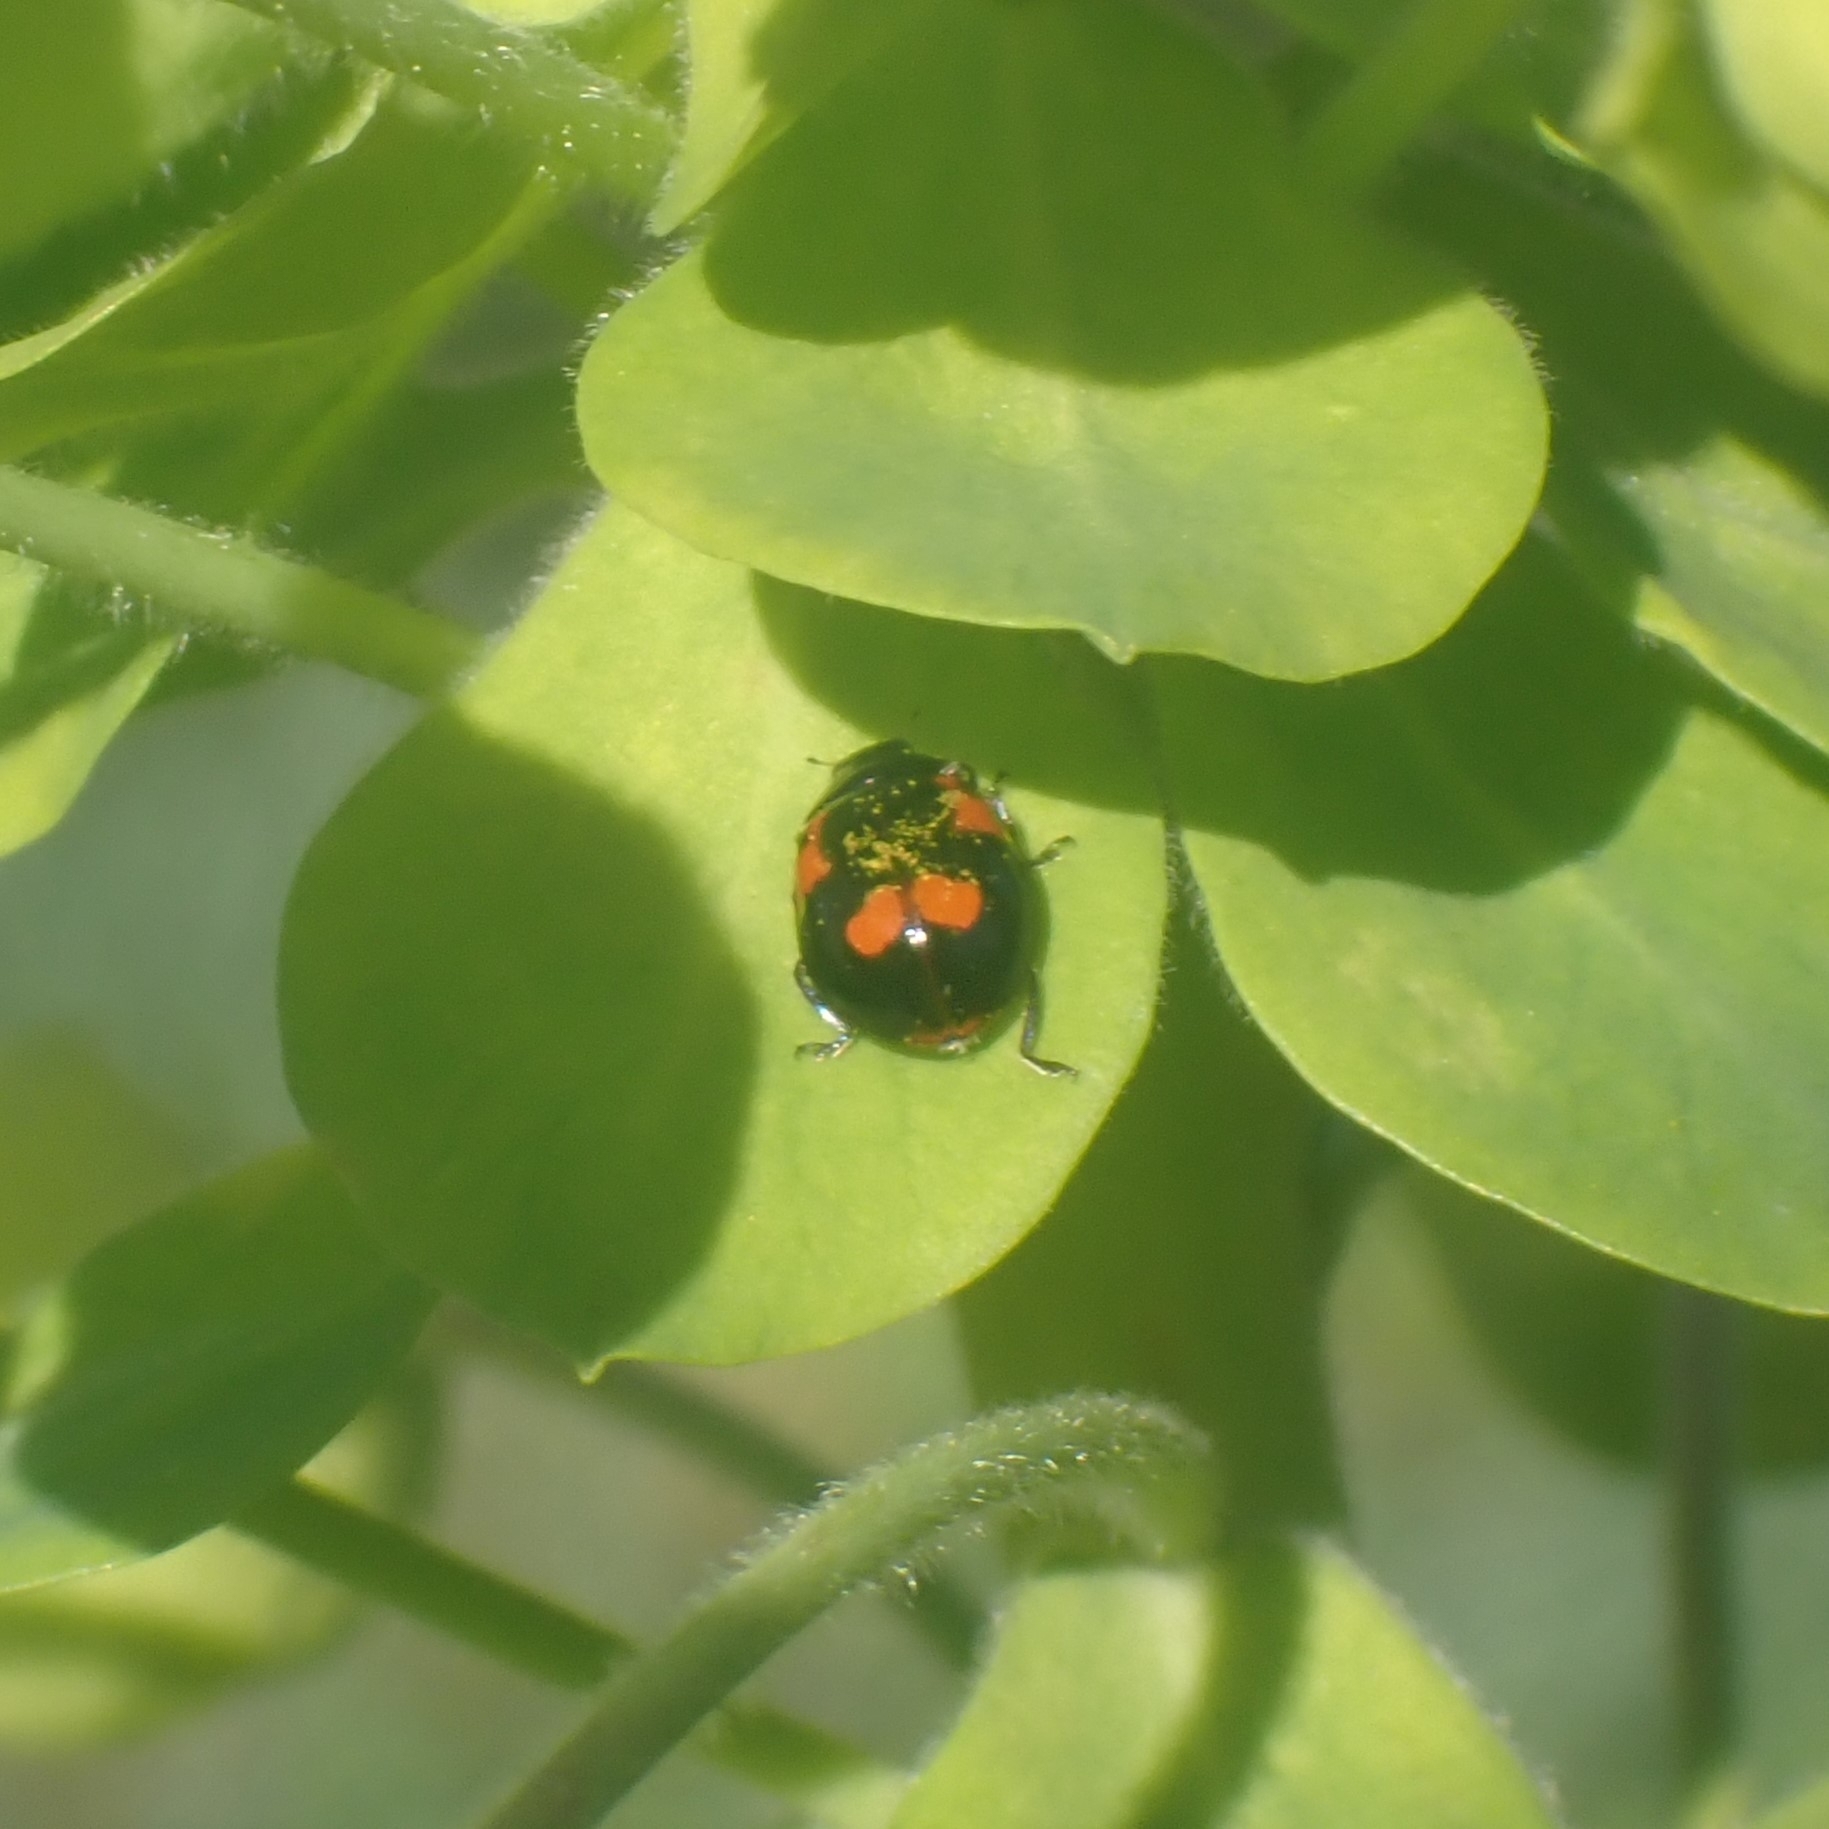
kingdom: Animalia
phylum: Arthropoda
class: Insecta
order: Coleoptera
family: Coccinellidae
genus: Adalia
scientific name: Adalia bipunctata
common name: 2-spot ladybird
